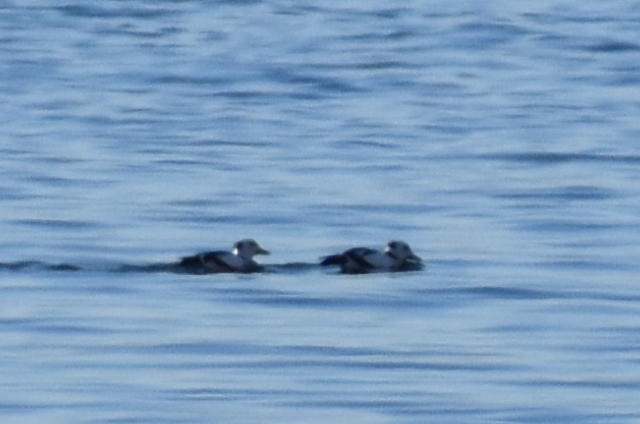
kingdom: Animalia
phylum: Chordata
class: Aves
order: Anseriformes
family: Anatidae
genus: Polysticta
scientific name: Polysticta stelleri
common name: Steller's eider
